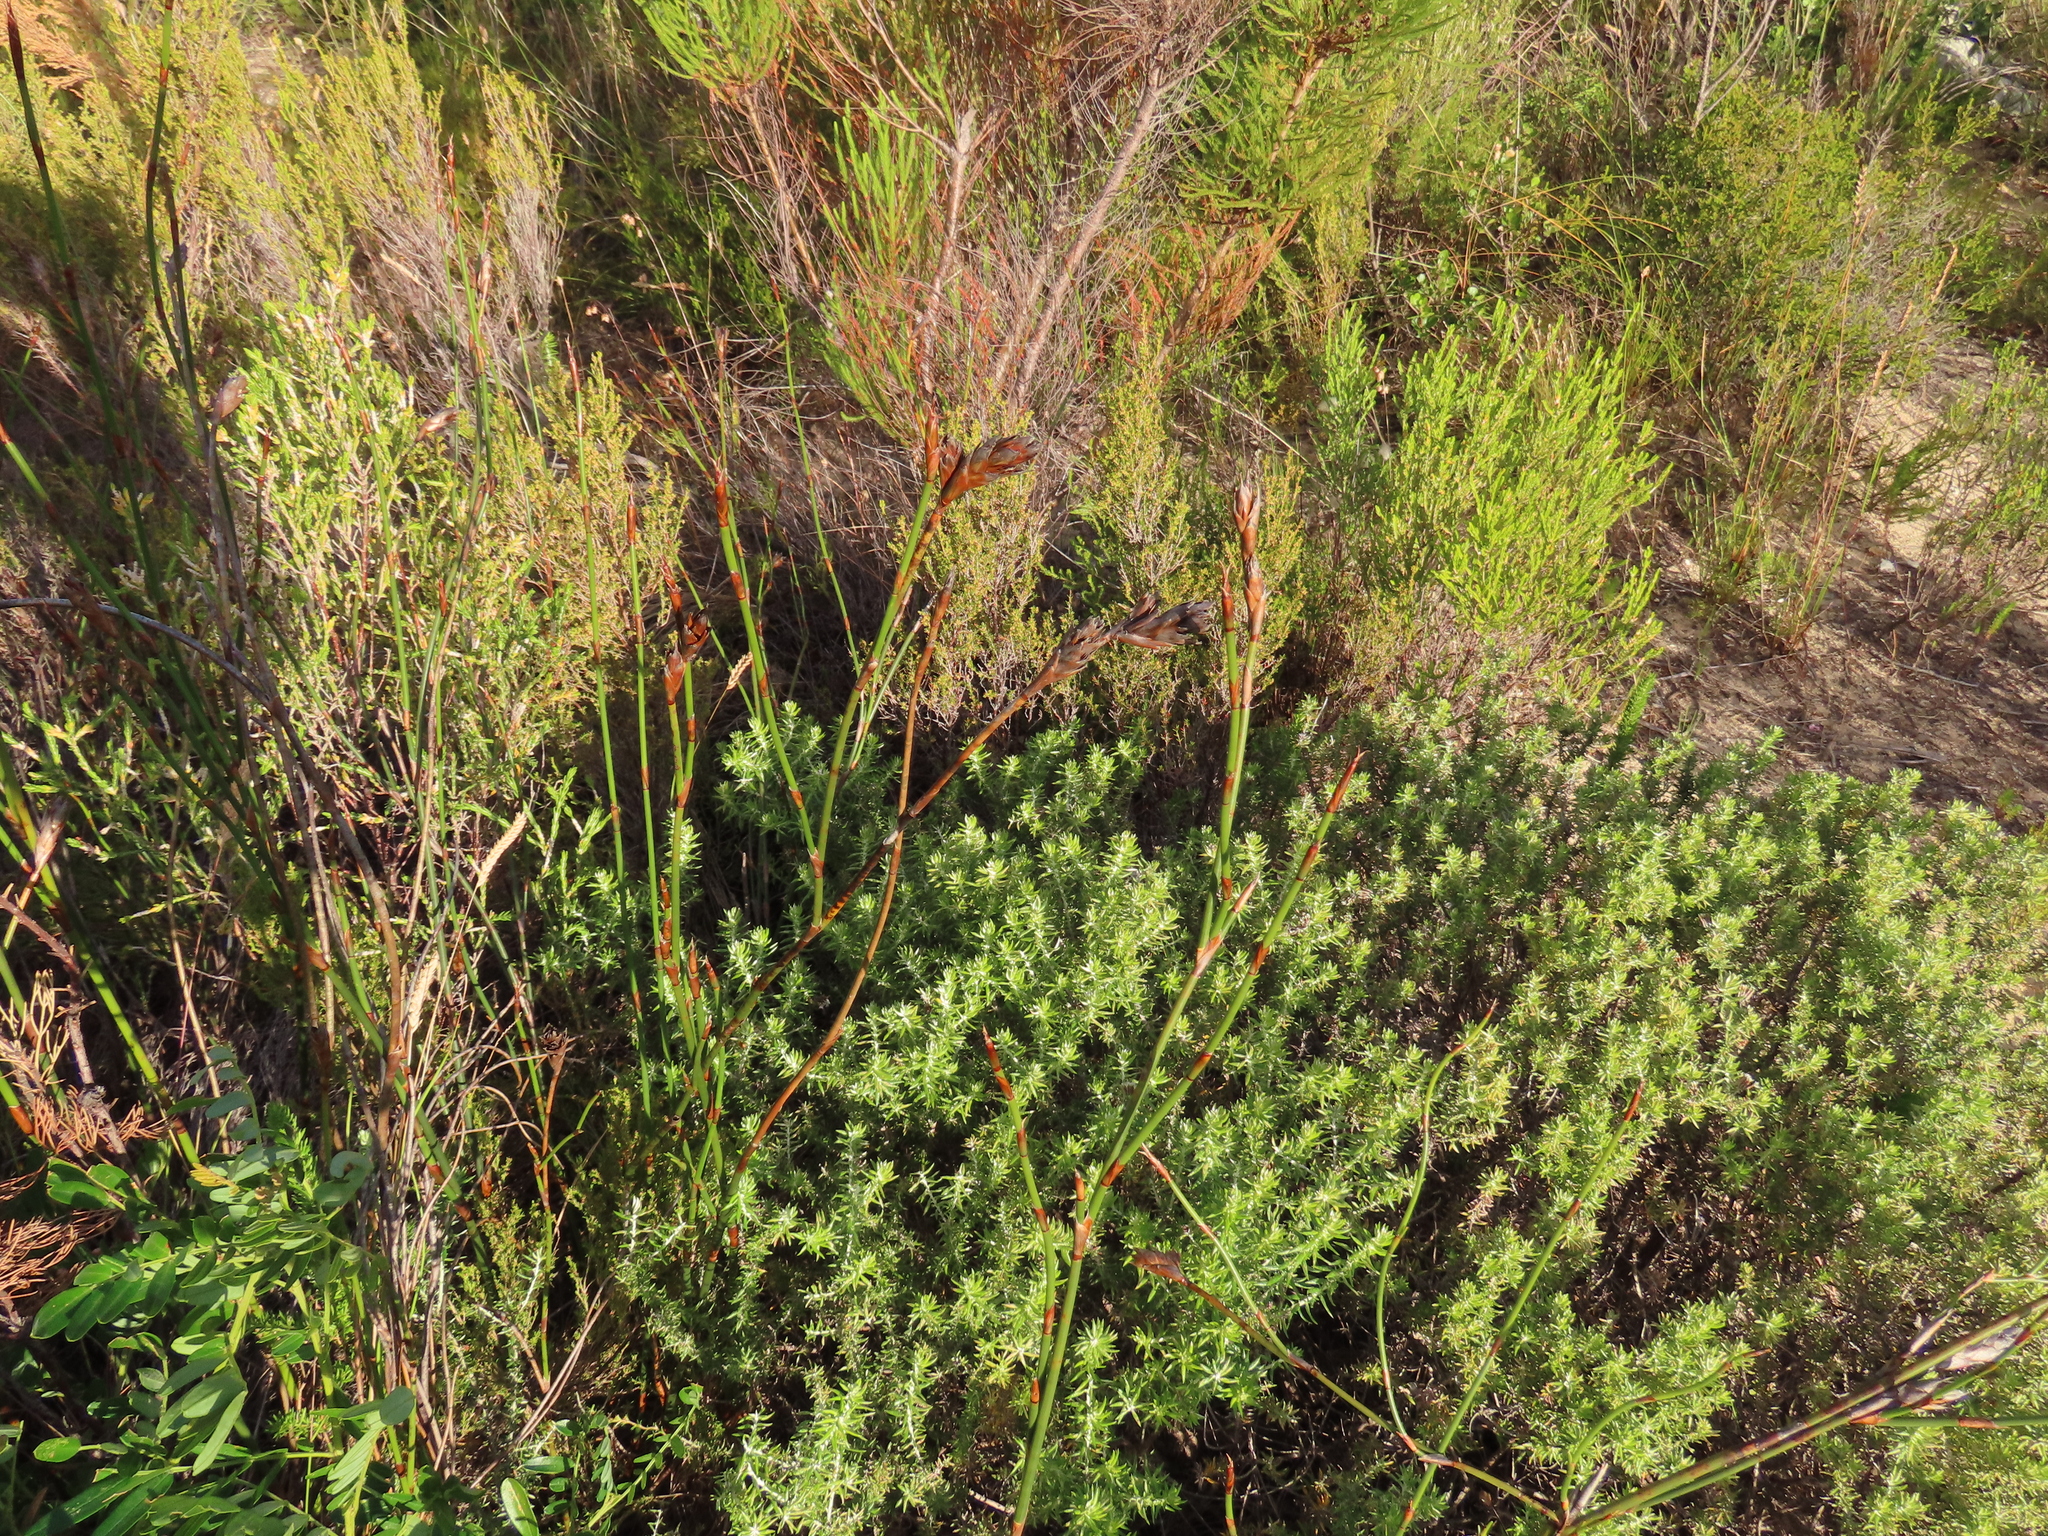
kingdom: Plantae
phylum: Tracheophyta
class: Liliopsida
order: Poales
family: Restionaceae
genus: Restio
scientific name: Restio dispar
